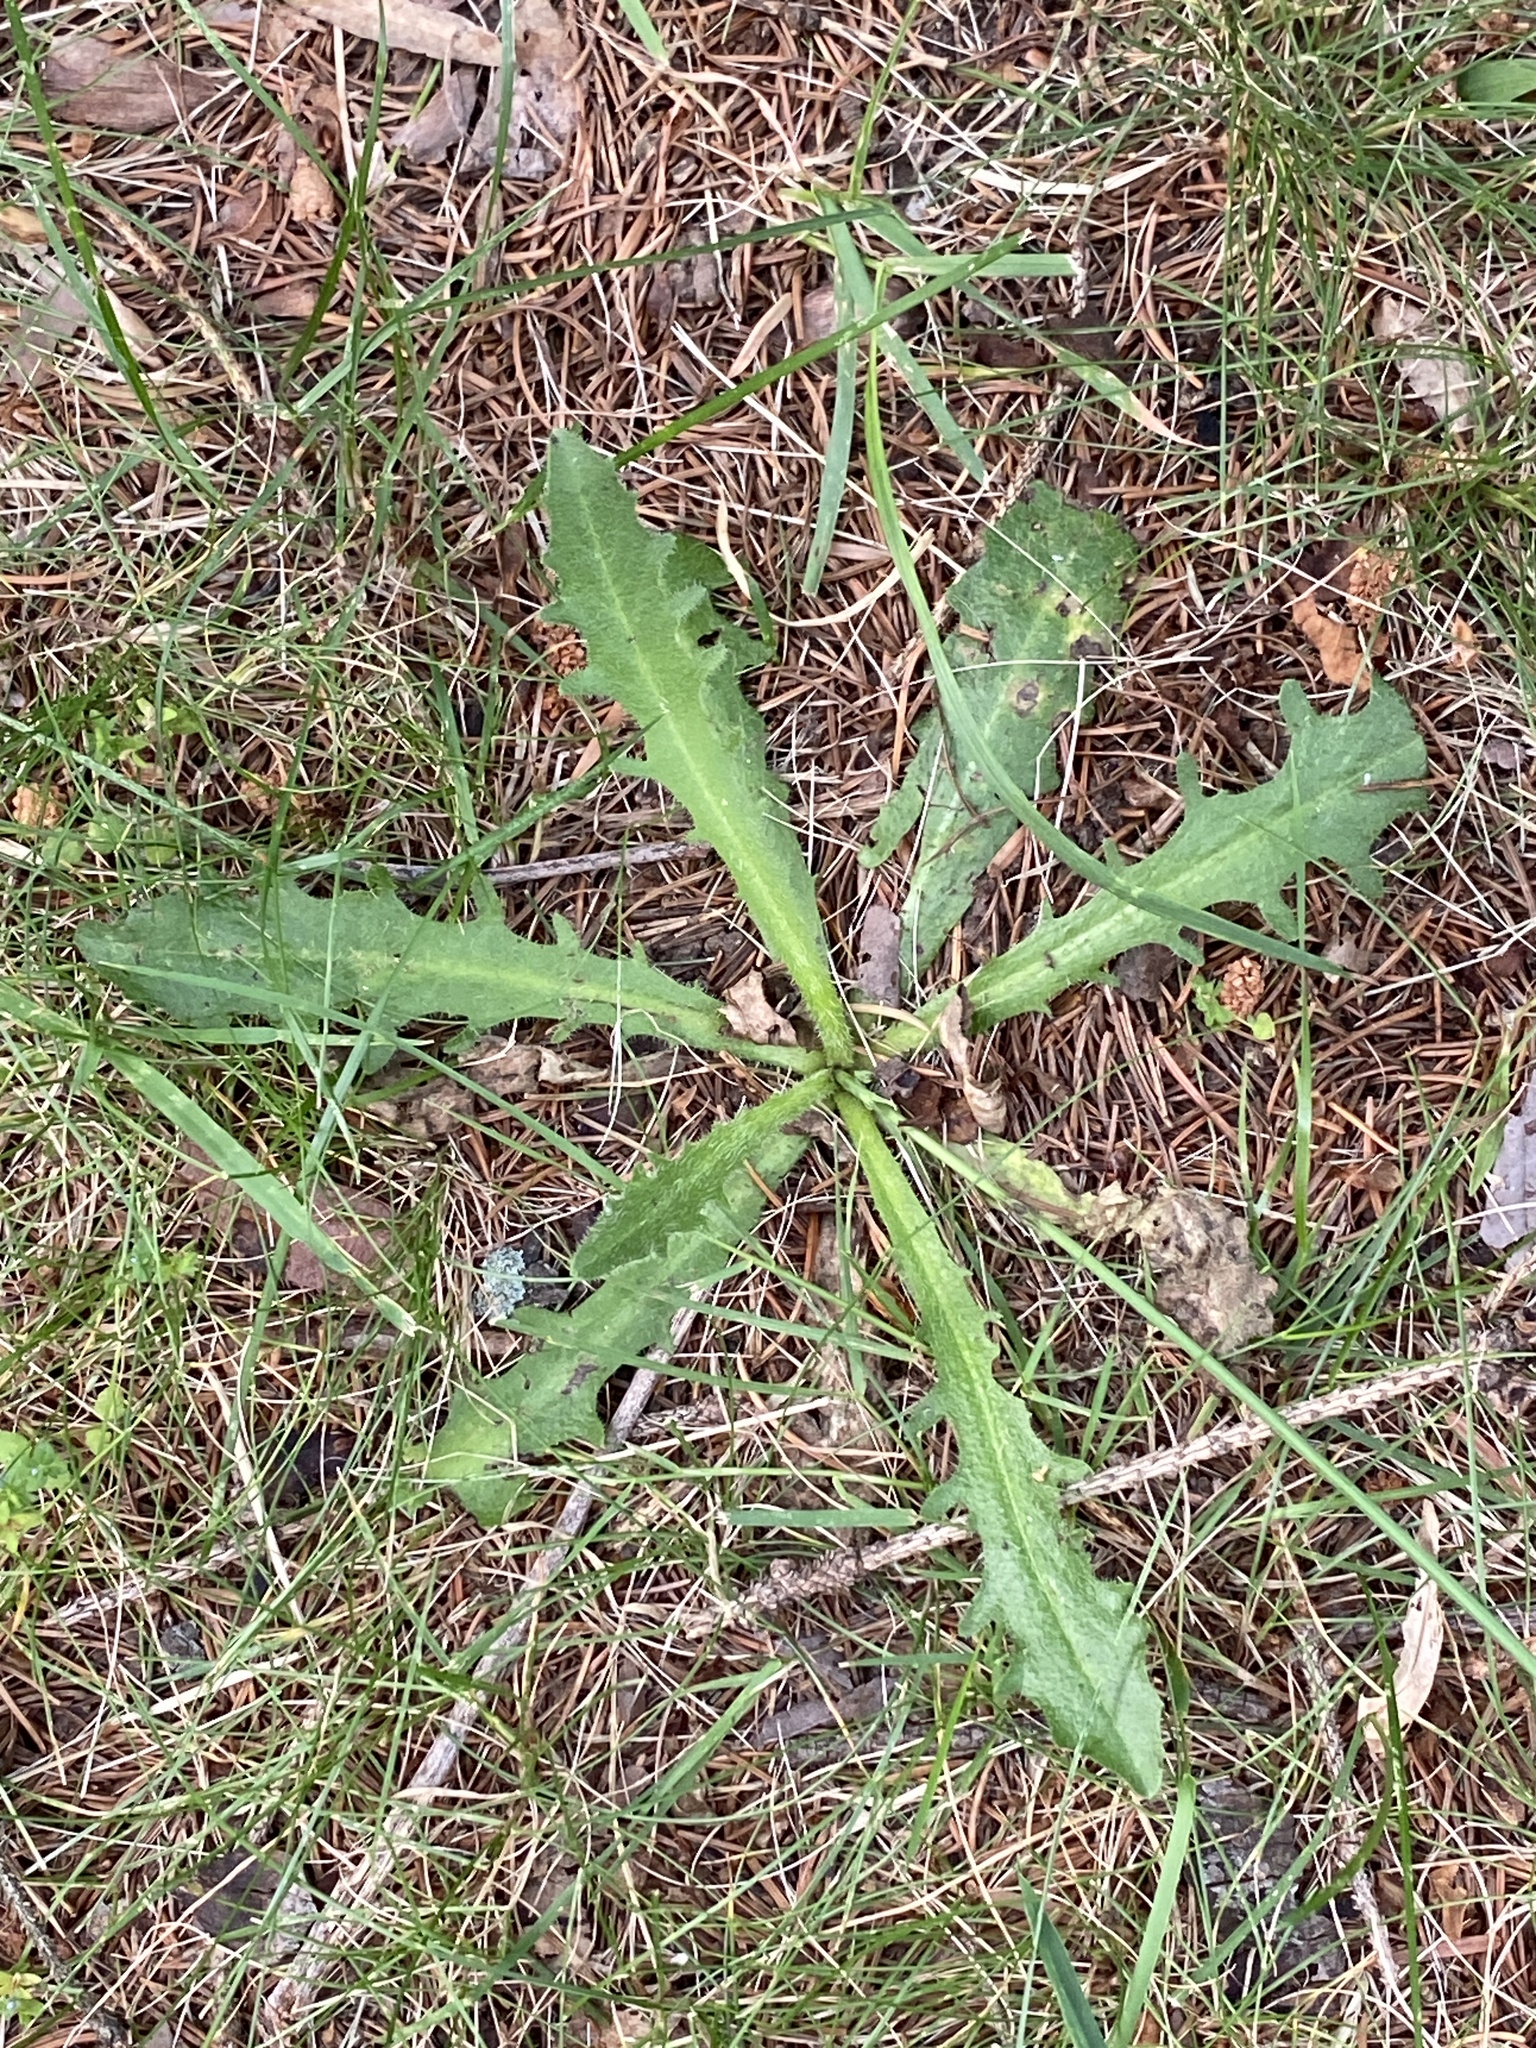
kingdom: Plantae
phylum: Tracheophyta
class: Magnoliopsida
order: Asterales
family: Asteraceae
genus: Hypochaeris
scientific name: Hypochaeris radicata
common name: Flatweed
